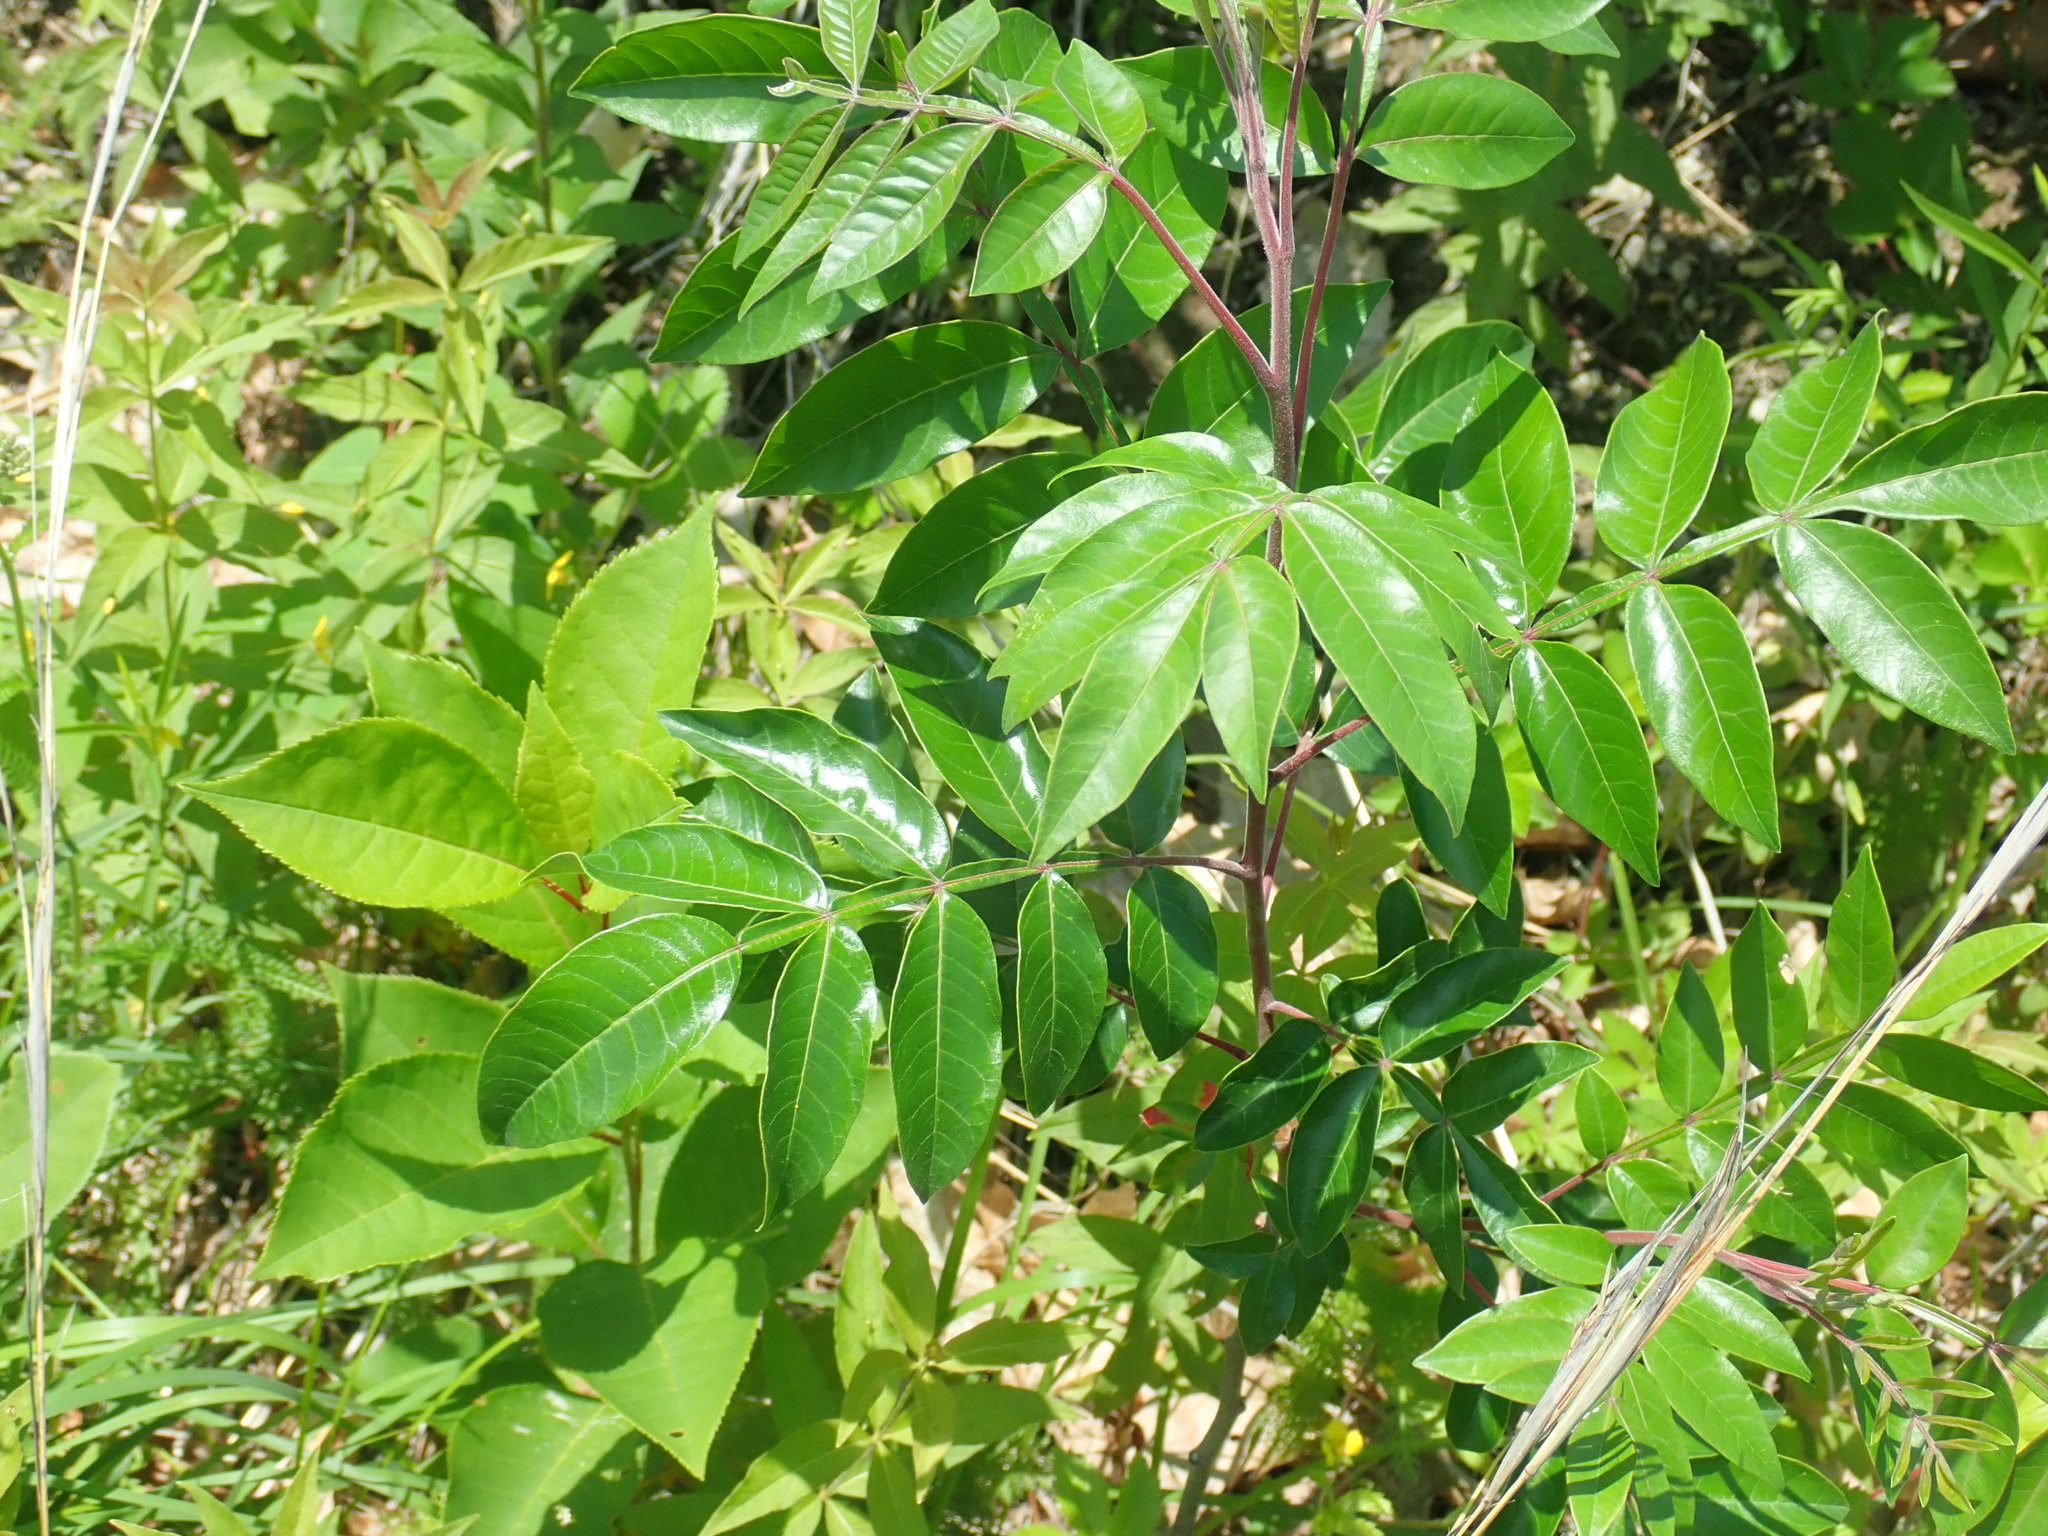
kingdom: Plantae
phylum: Tracheophyta
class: Magnoliopsida
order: Sapindales
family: Anacardiaceae
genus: Rhus
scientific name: Rhus copallina
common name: Shining sumac
